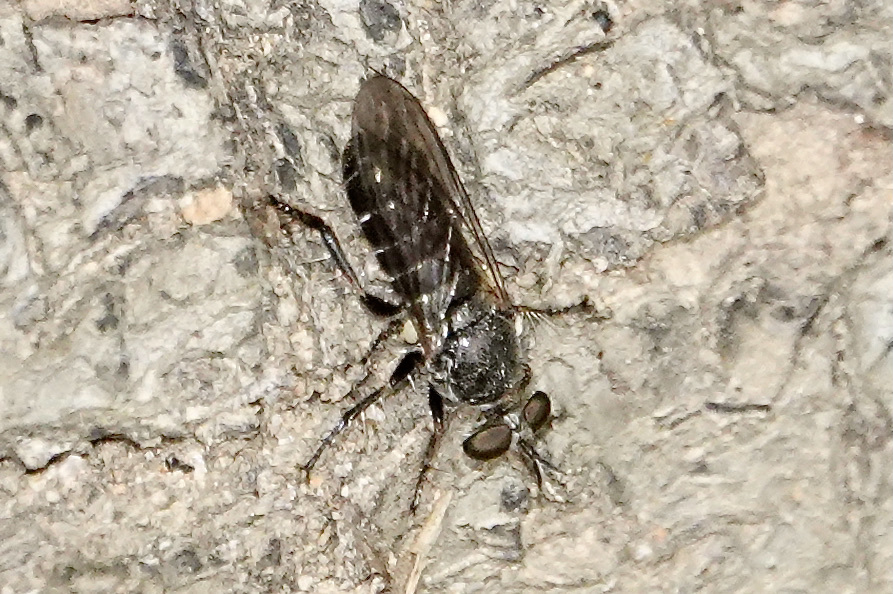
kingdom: Animalia
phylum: Arthropoda
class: Insecta
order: Diptera
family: Asilidae
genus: Atomosia
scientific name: Atomosia puella
